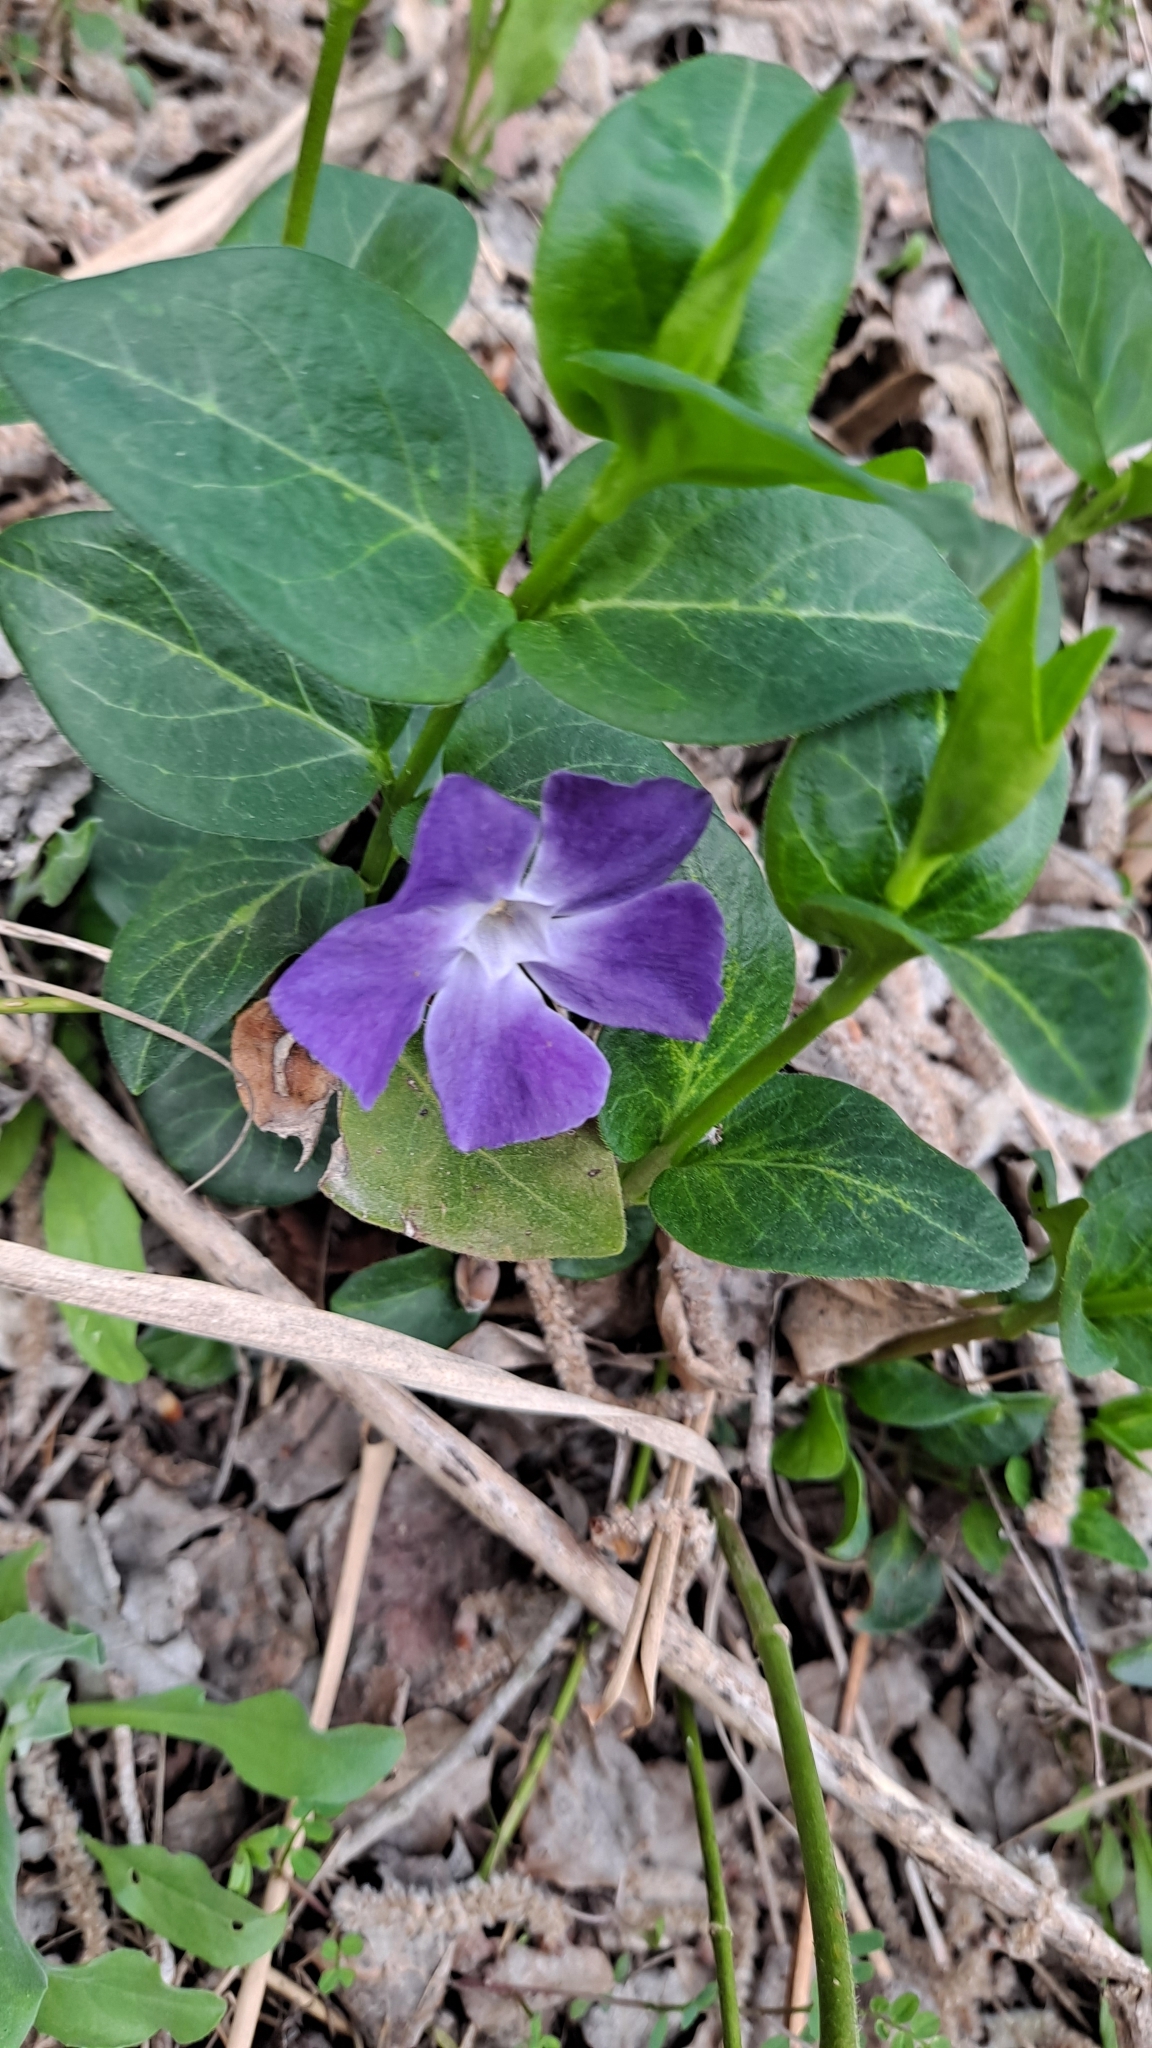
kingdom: Plantae
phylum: Tracheophyta
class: Magnoliopsida
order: Gentianales
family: Apocynaceae
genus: Vinca
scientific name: Vinca major
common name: Greater periwinkle
